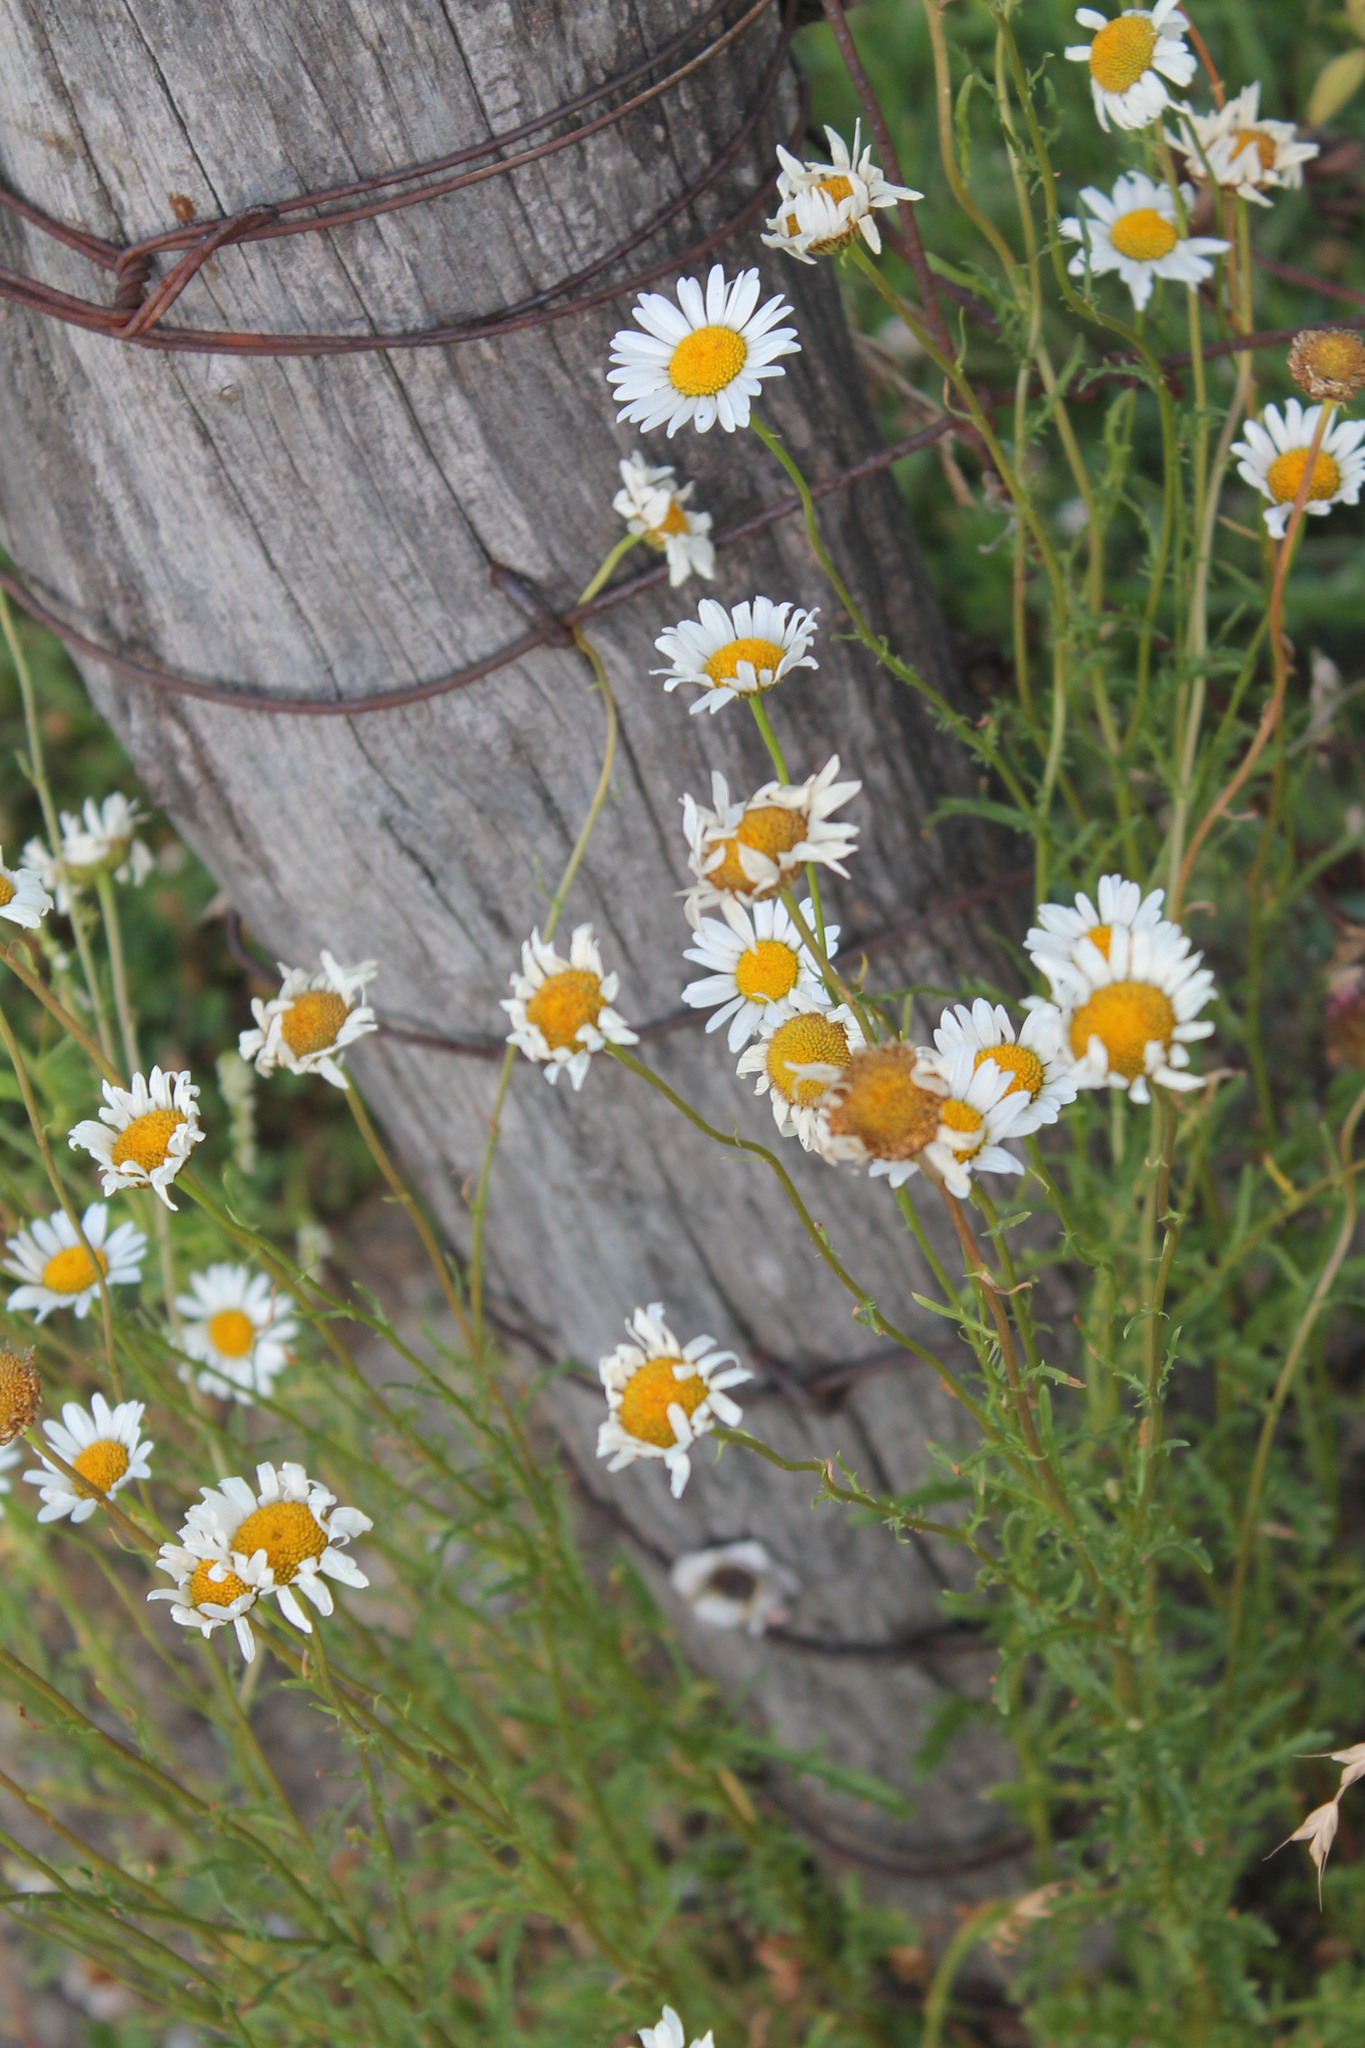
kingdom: Plantae
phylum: Tracheophyta
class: Magnoliopsida
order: Asterales
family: Asteraceae
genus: Leucanthemum
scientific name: Leucanthemum vulgare
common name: Oxeye daisy
